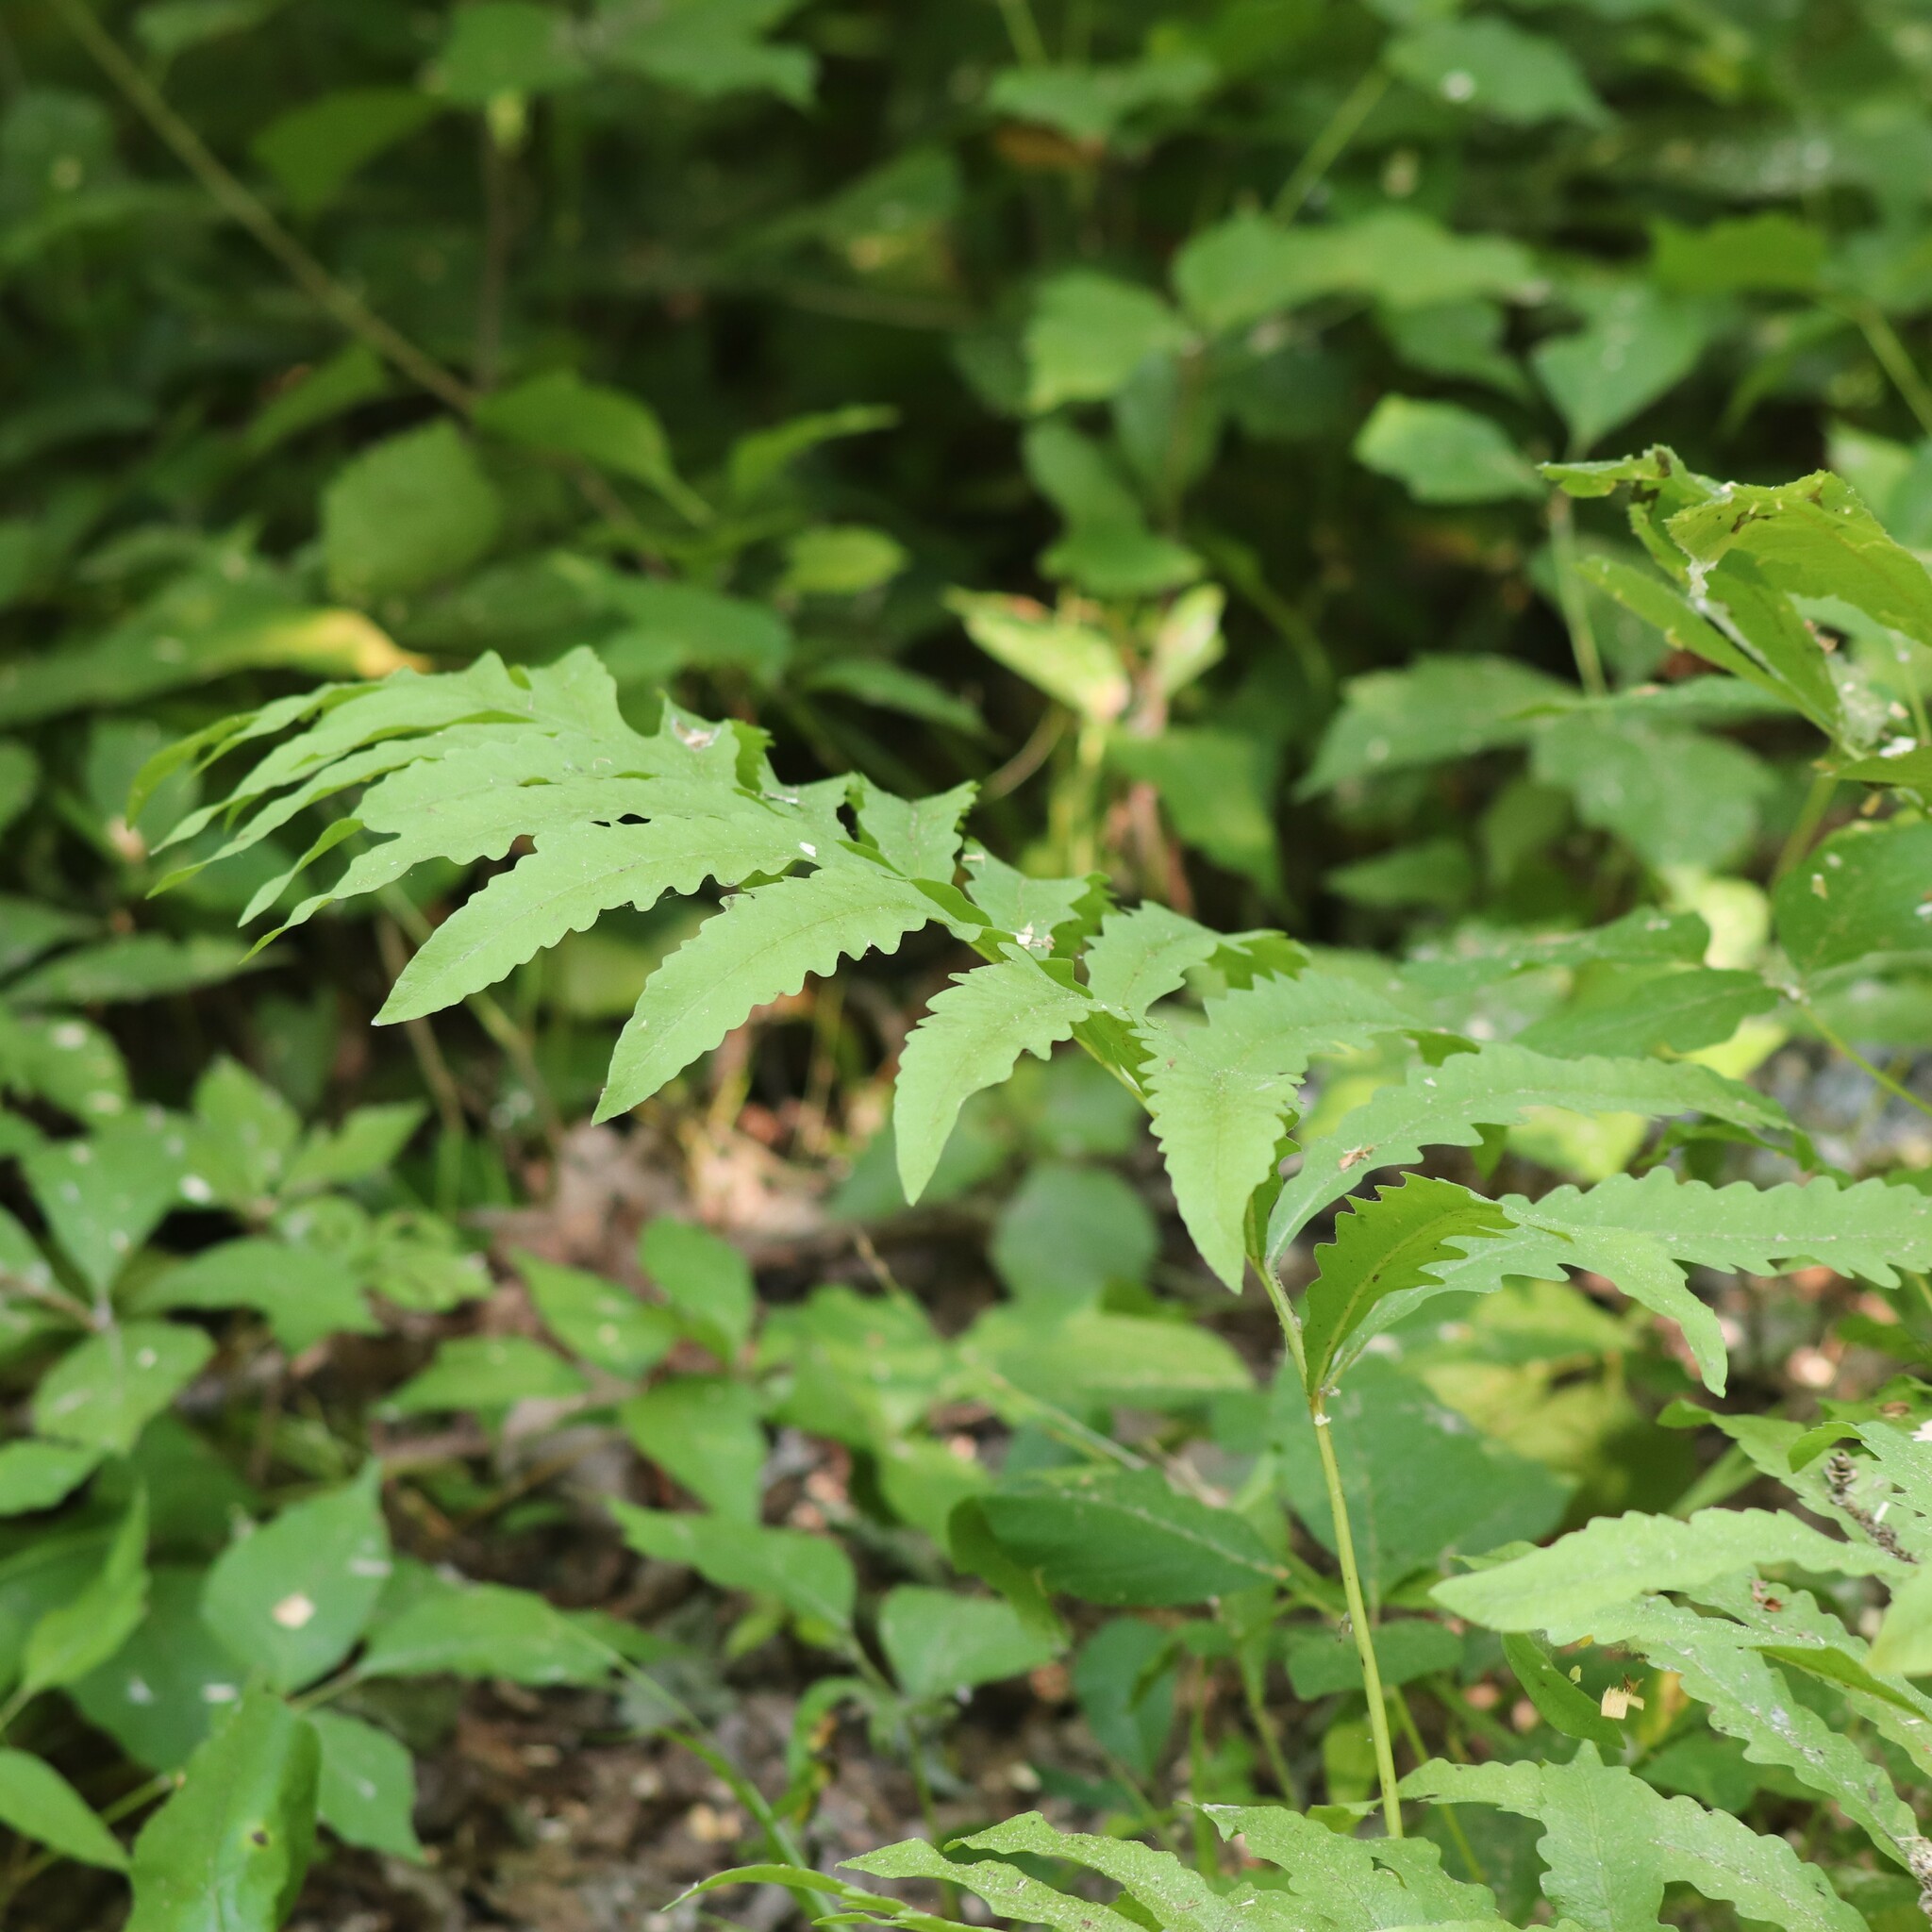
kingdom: Plantae
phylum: Tracheophyta
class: Polypodiopsida
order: Polypodiales
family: Onocleaceae
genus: Onoclea
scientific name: Onoclea sensibilis
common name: Sensitive fern
